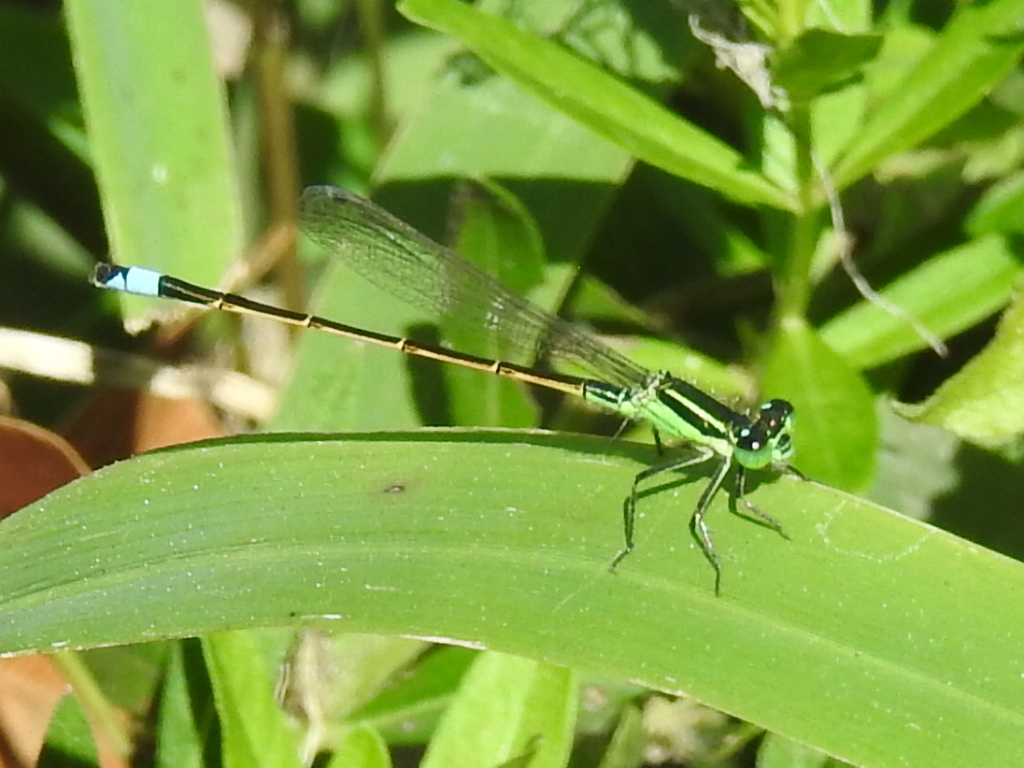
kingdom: Animalia
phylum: Arthropoda
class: Insecta
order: Odonata
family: Coenagrionidae
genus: Ischnura
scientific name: Ischnura ramburii
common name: Rambur's forktail
